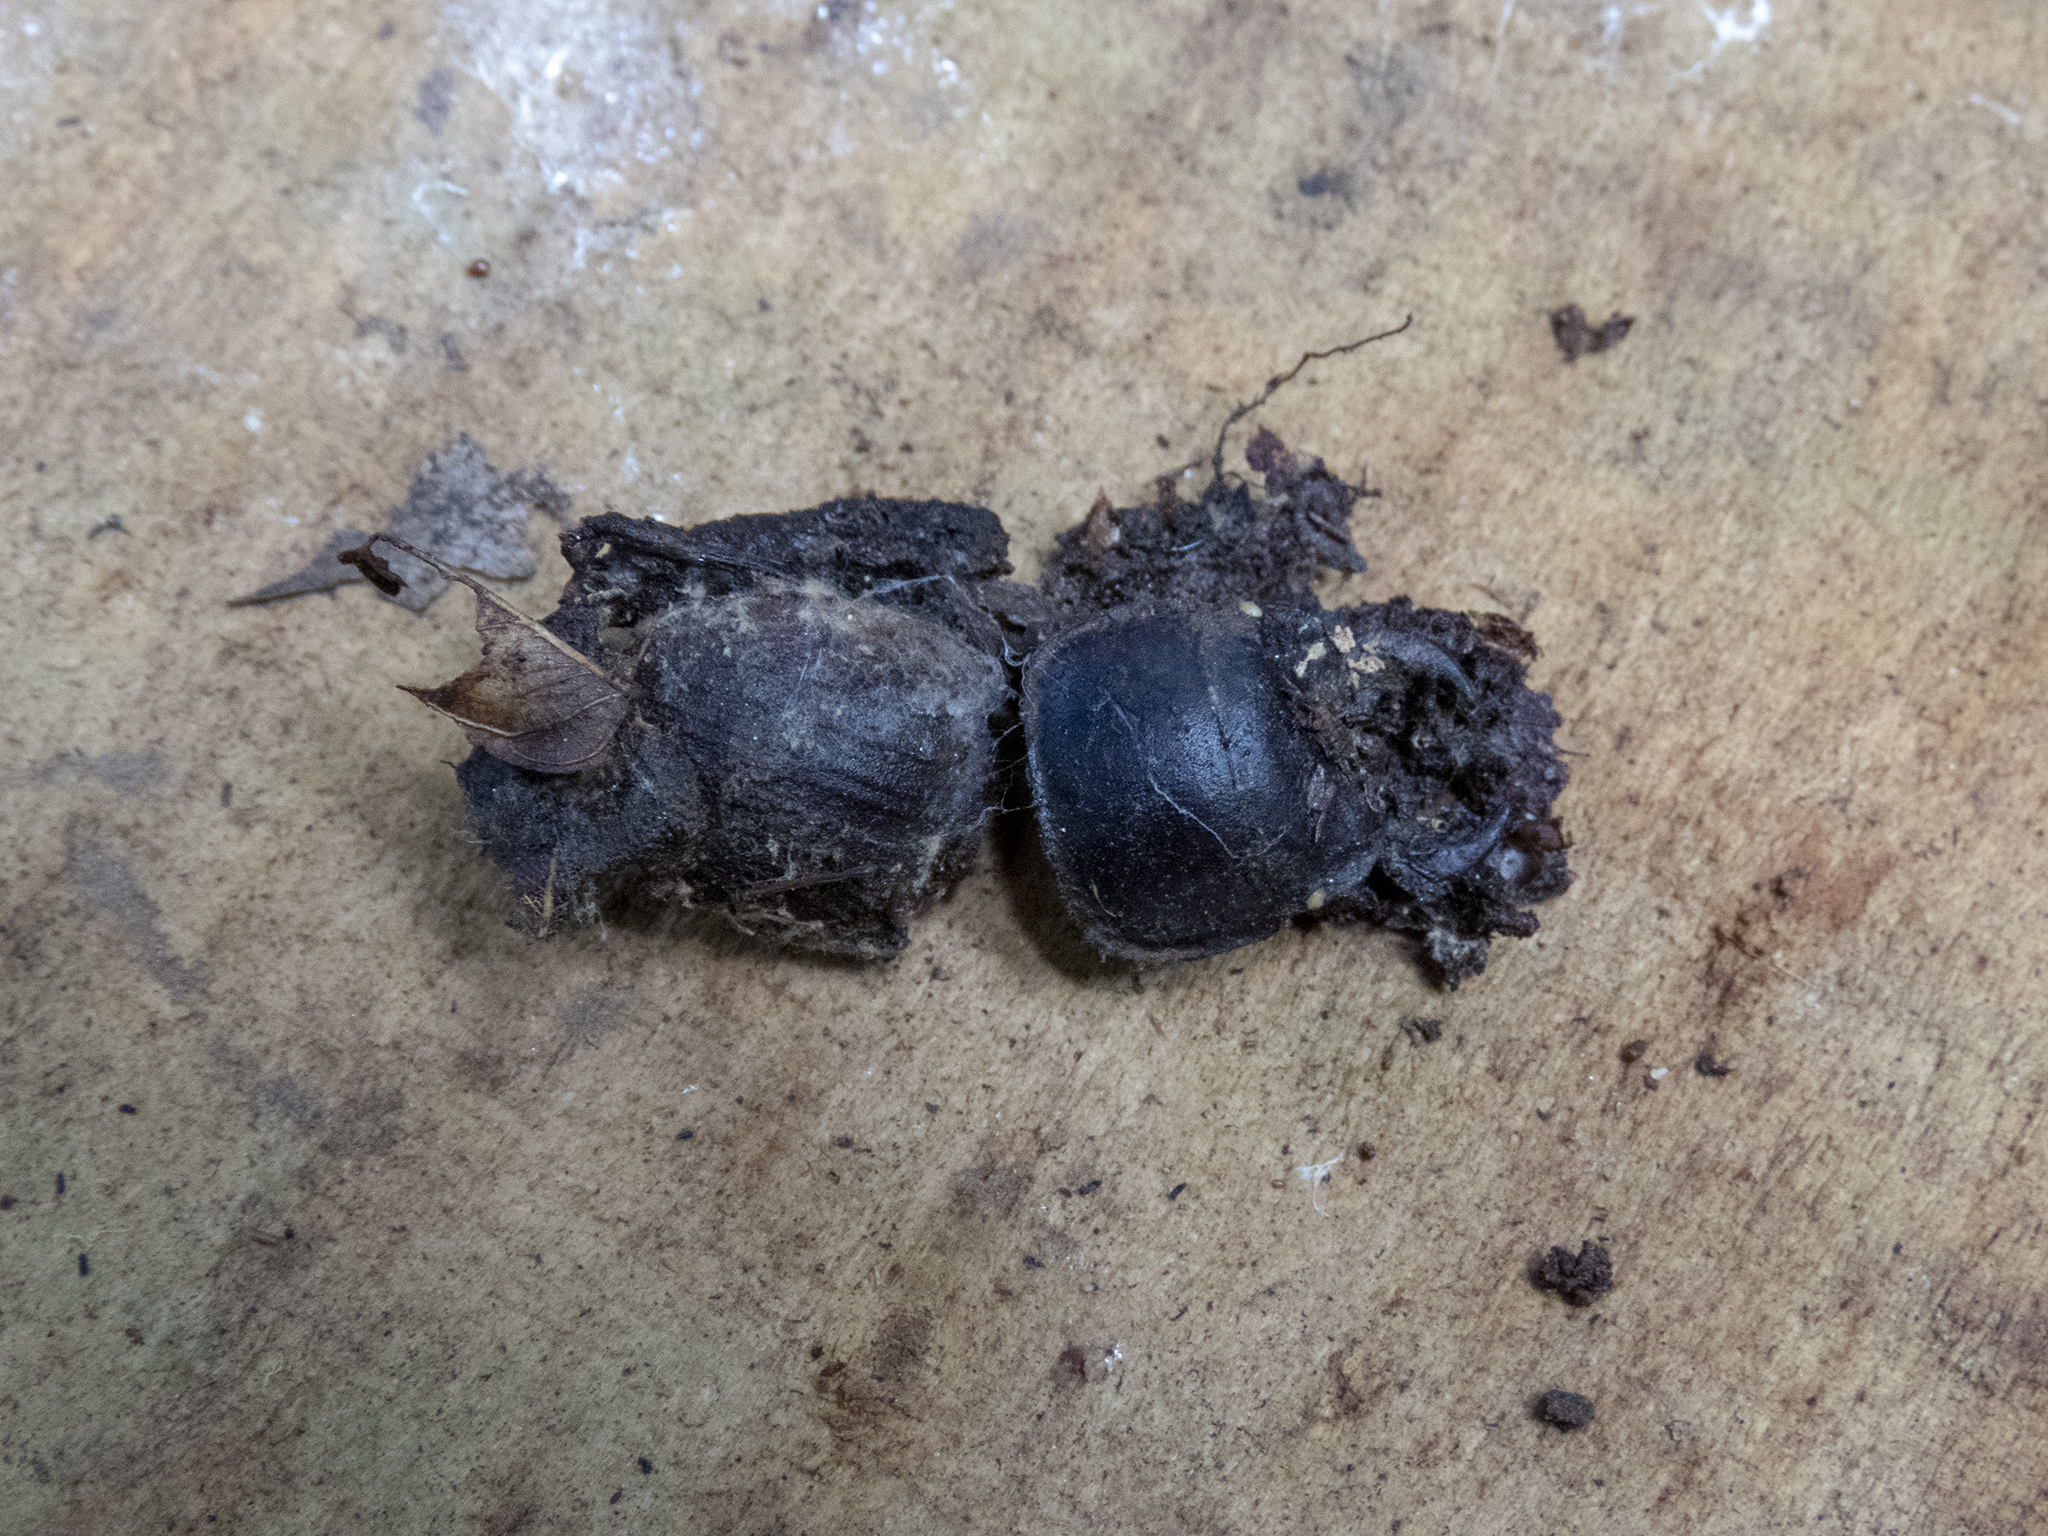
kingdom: Animalia
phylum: Arthropoda
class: Insecta
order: Coleoptera
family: Lucanidae
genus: Geodorcus
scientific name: Geodorcus helmsi
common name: Helm's stag beetle
